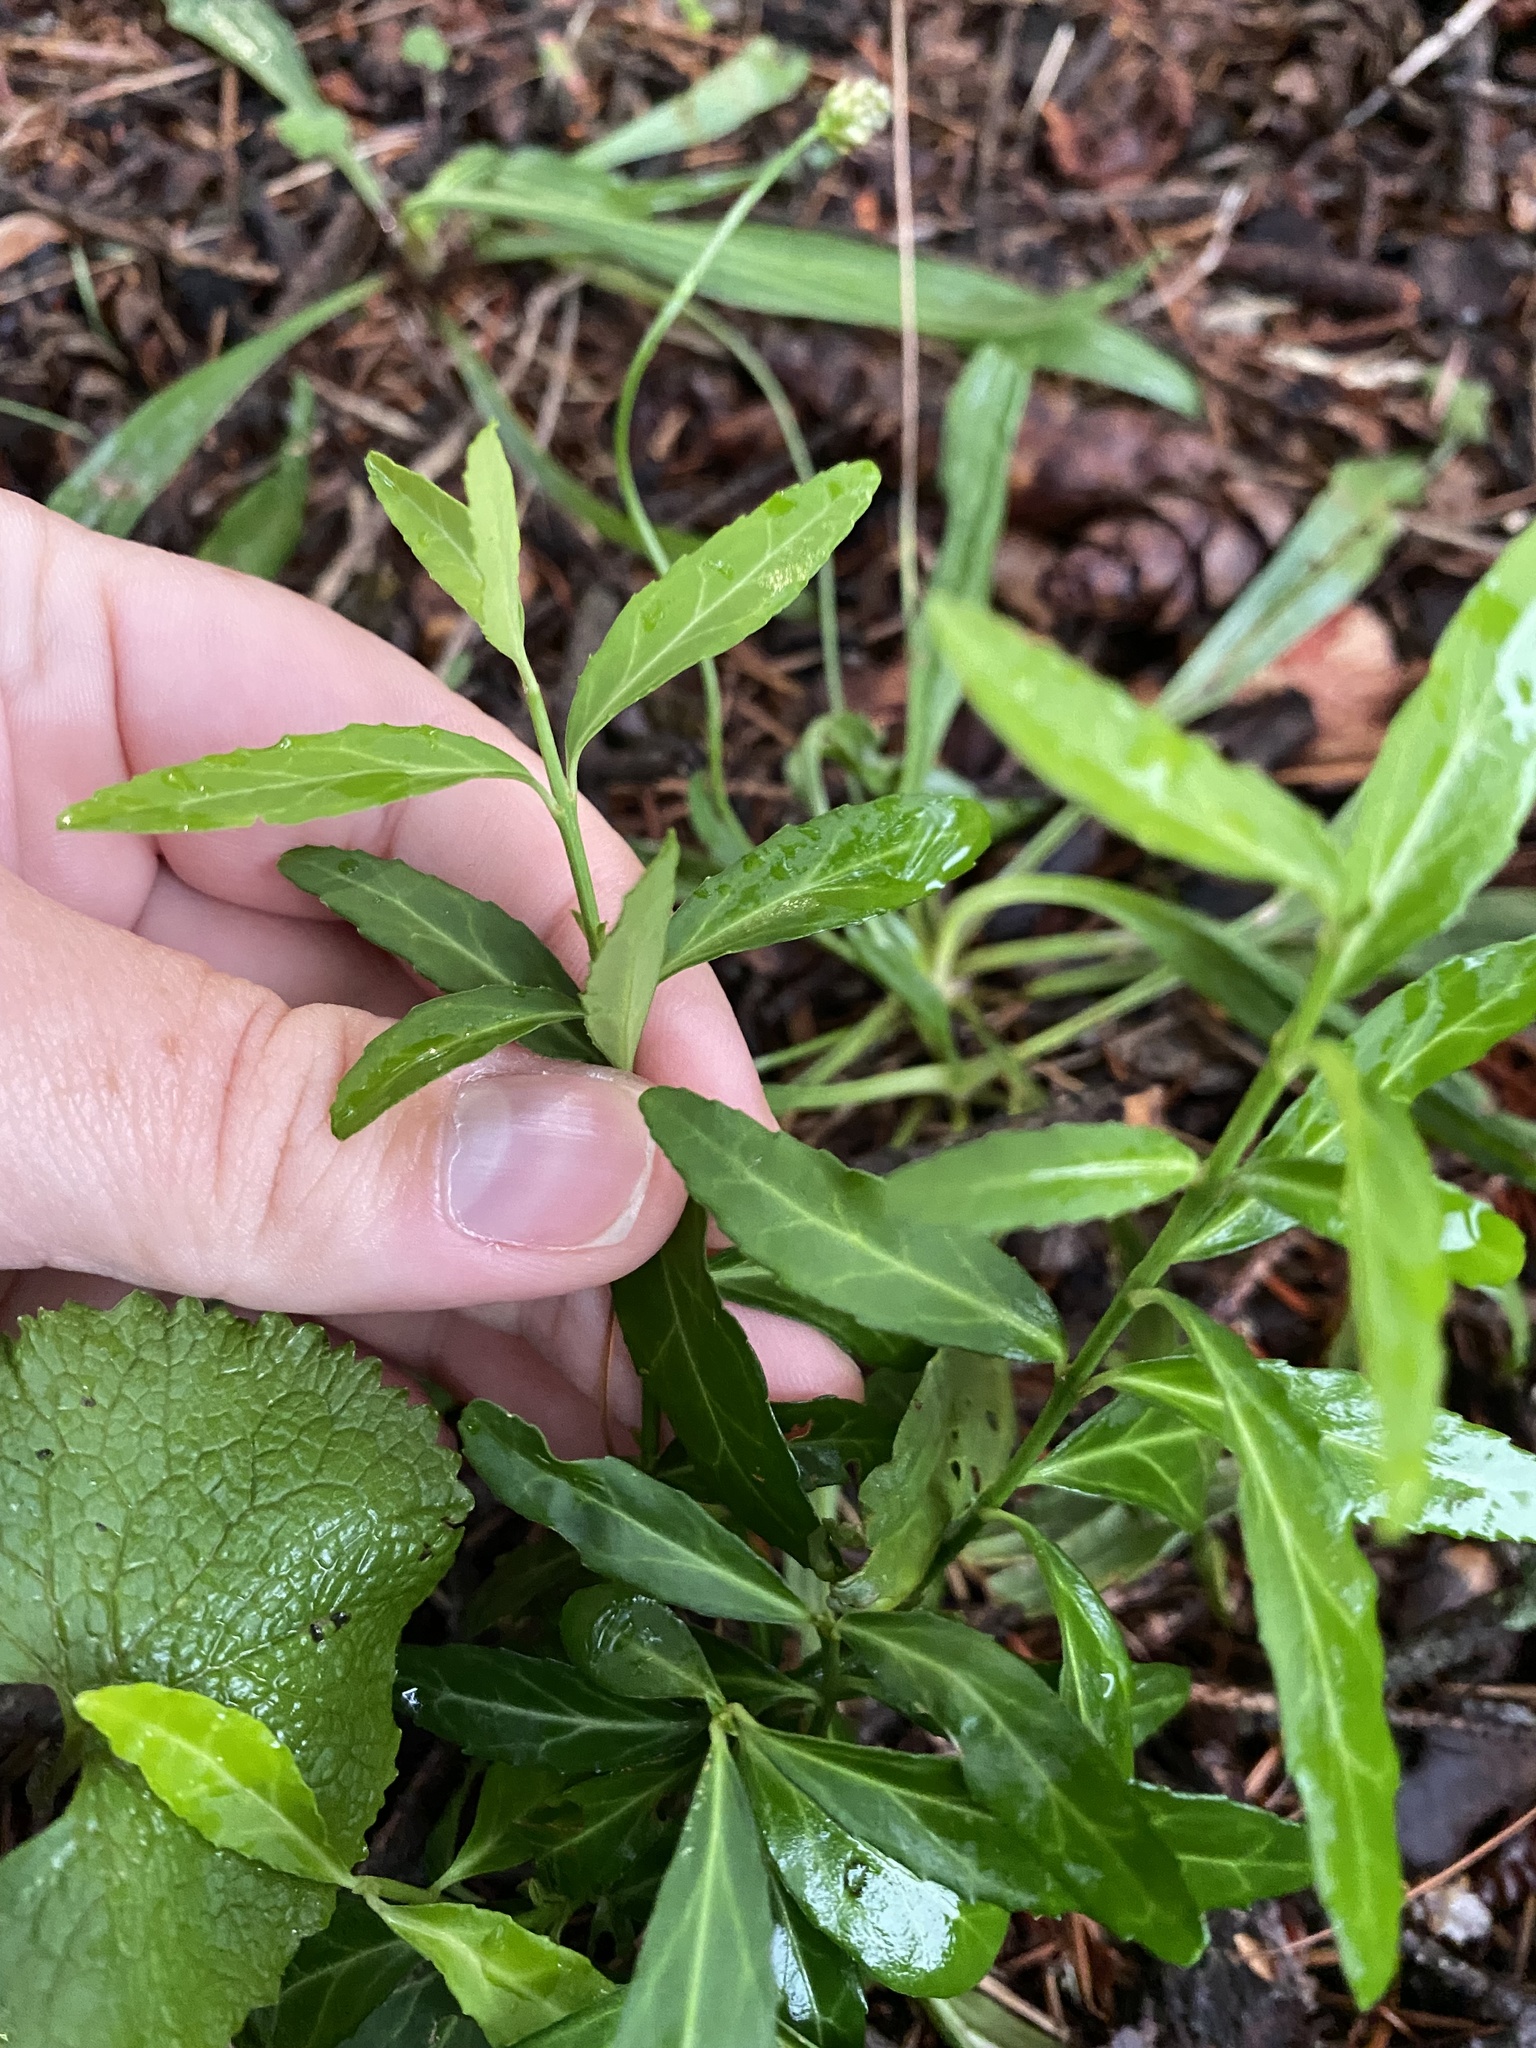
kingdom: Plantae
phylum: Tracheophyta
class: Magnoliopsida
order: Celastrales
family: Celastraceae
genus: Euonymus
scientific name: Euonymus fortunei
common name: Climbing euonymus
